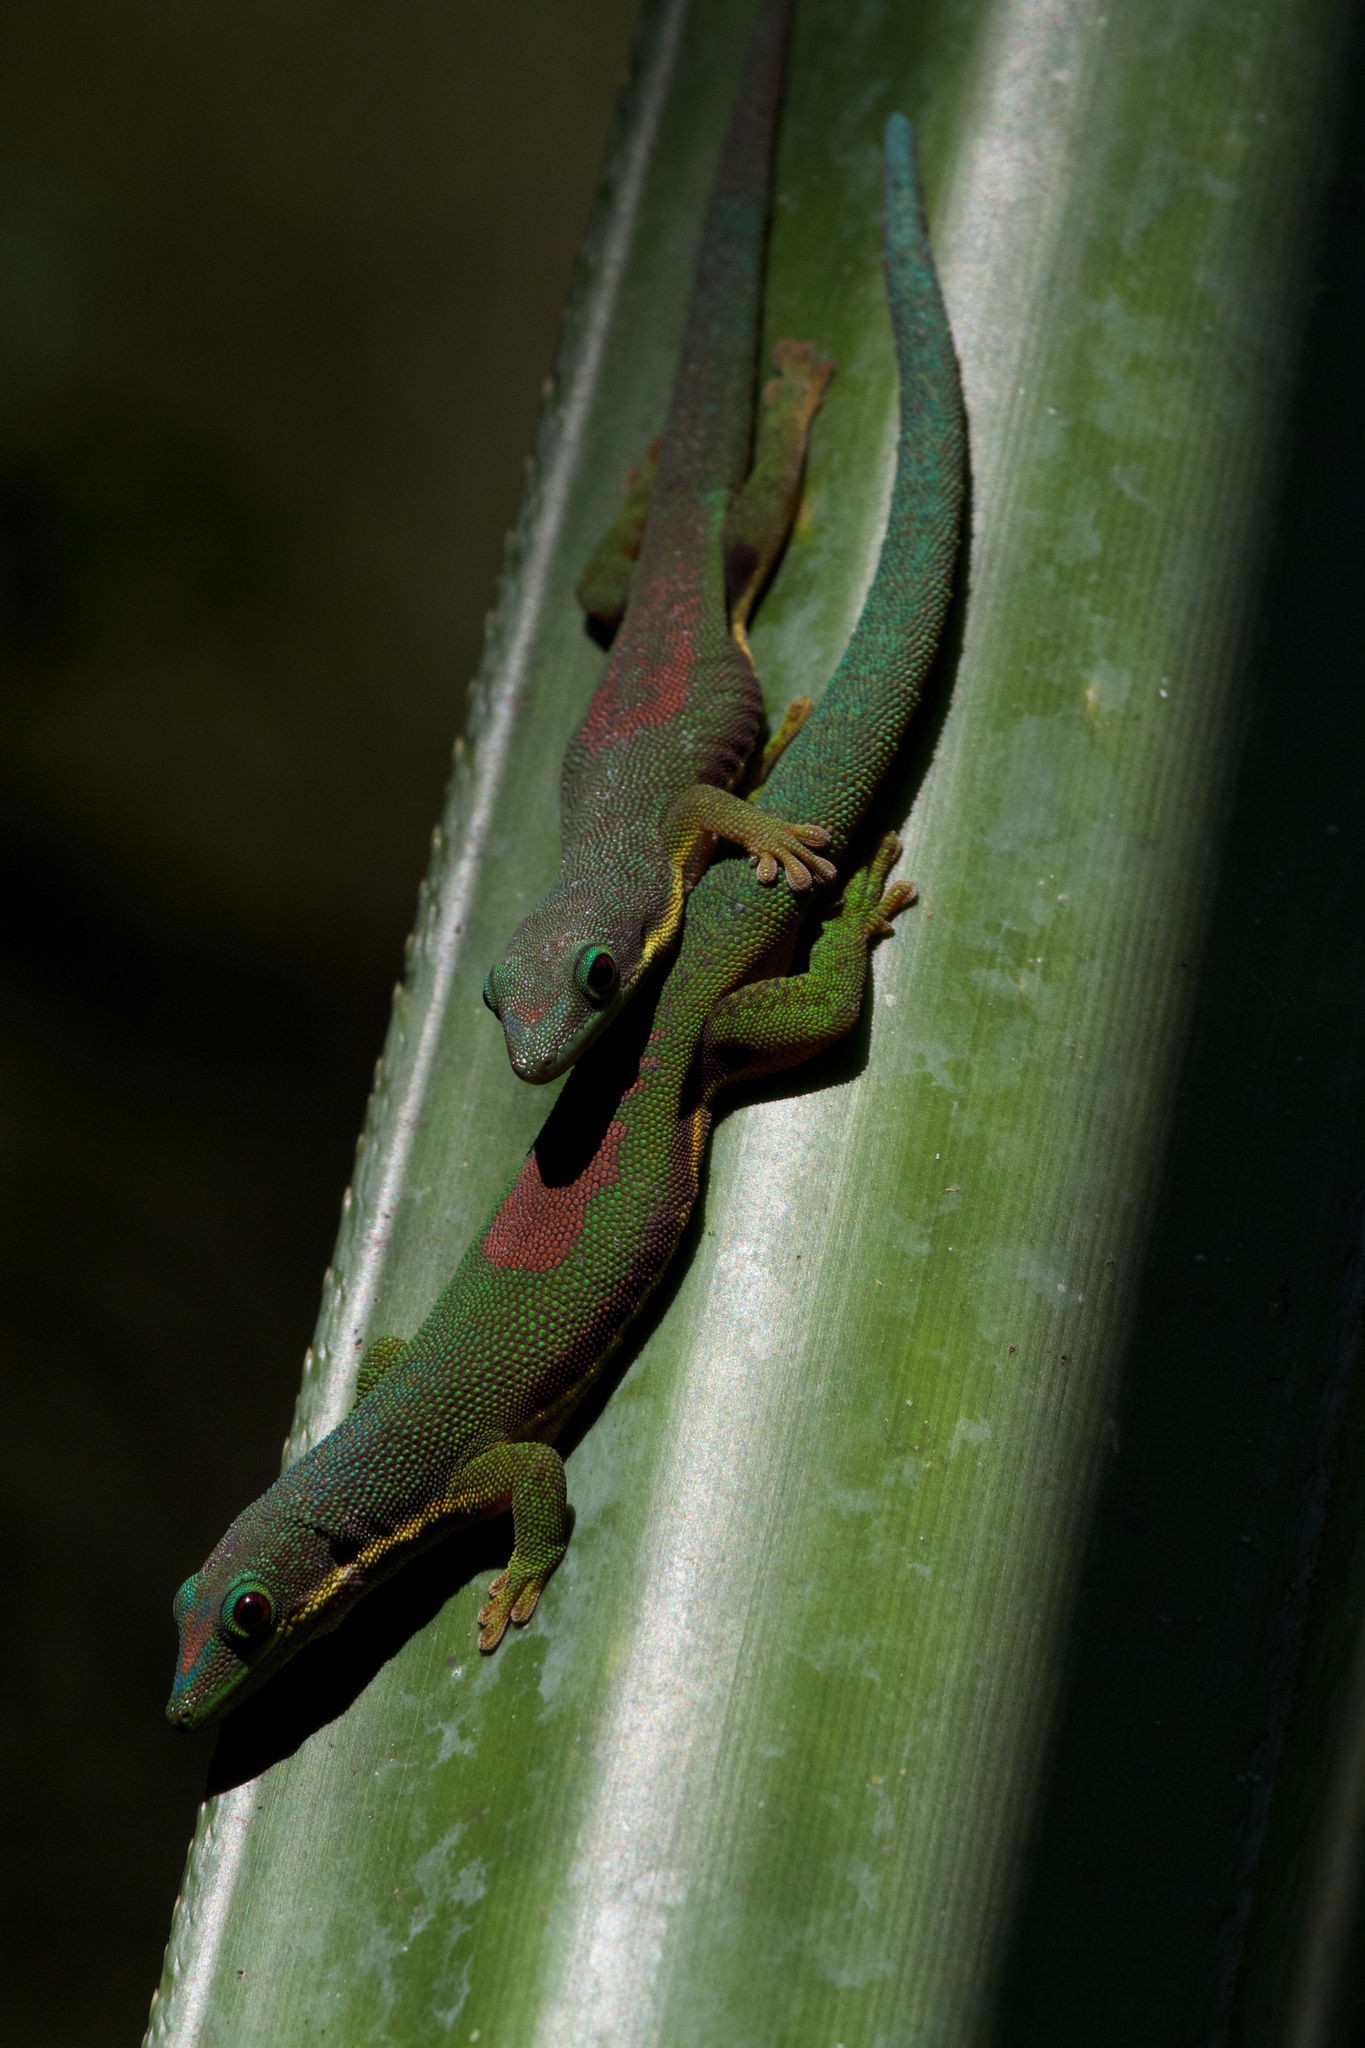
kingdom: Animalia
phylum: Chordata
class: Squamata
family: Gekkonidae
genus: Phelsuma
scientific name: Phelsuma lineata
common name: Lined day gecko
